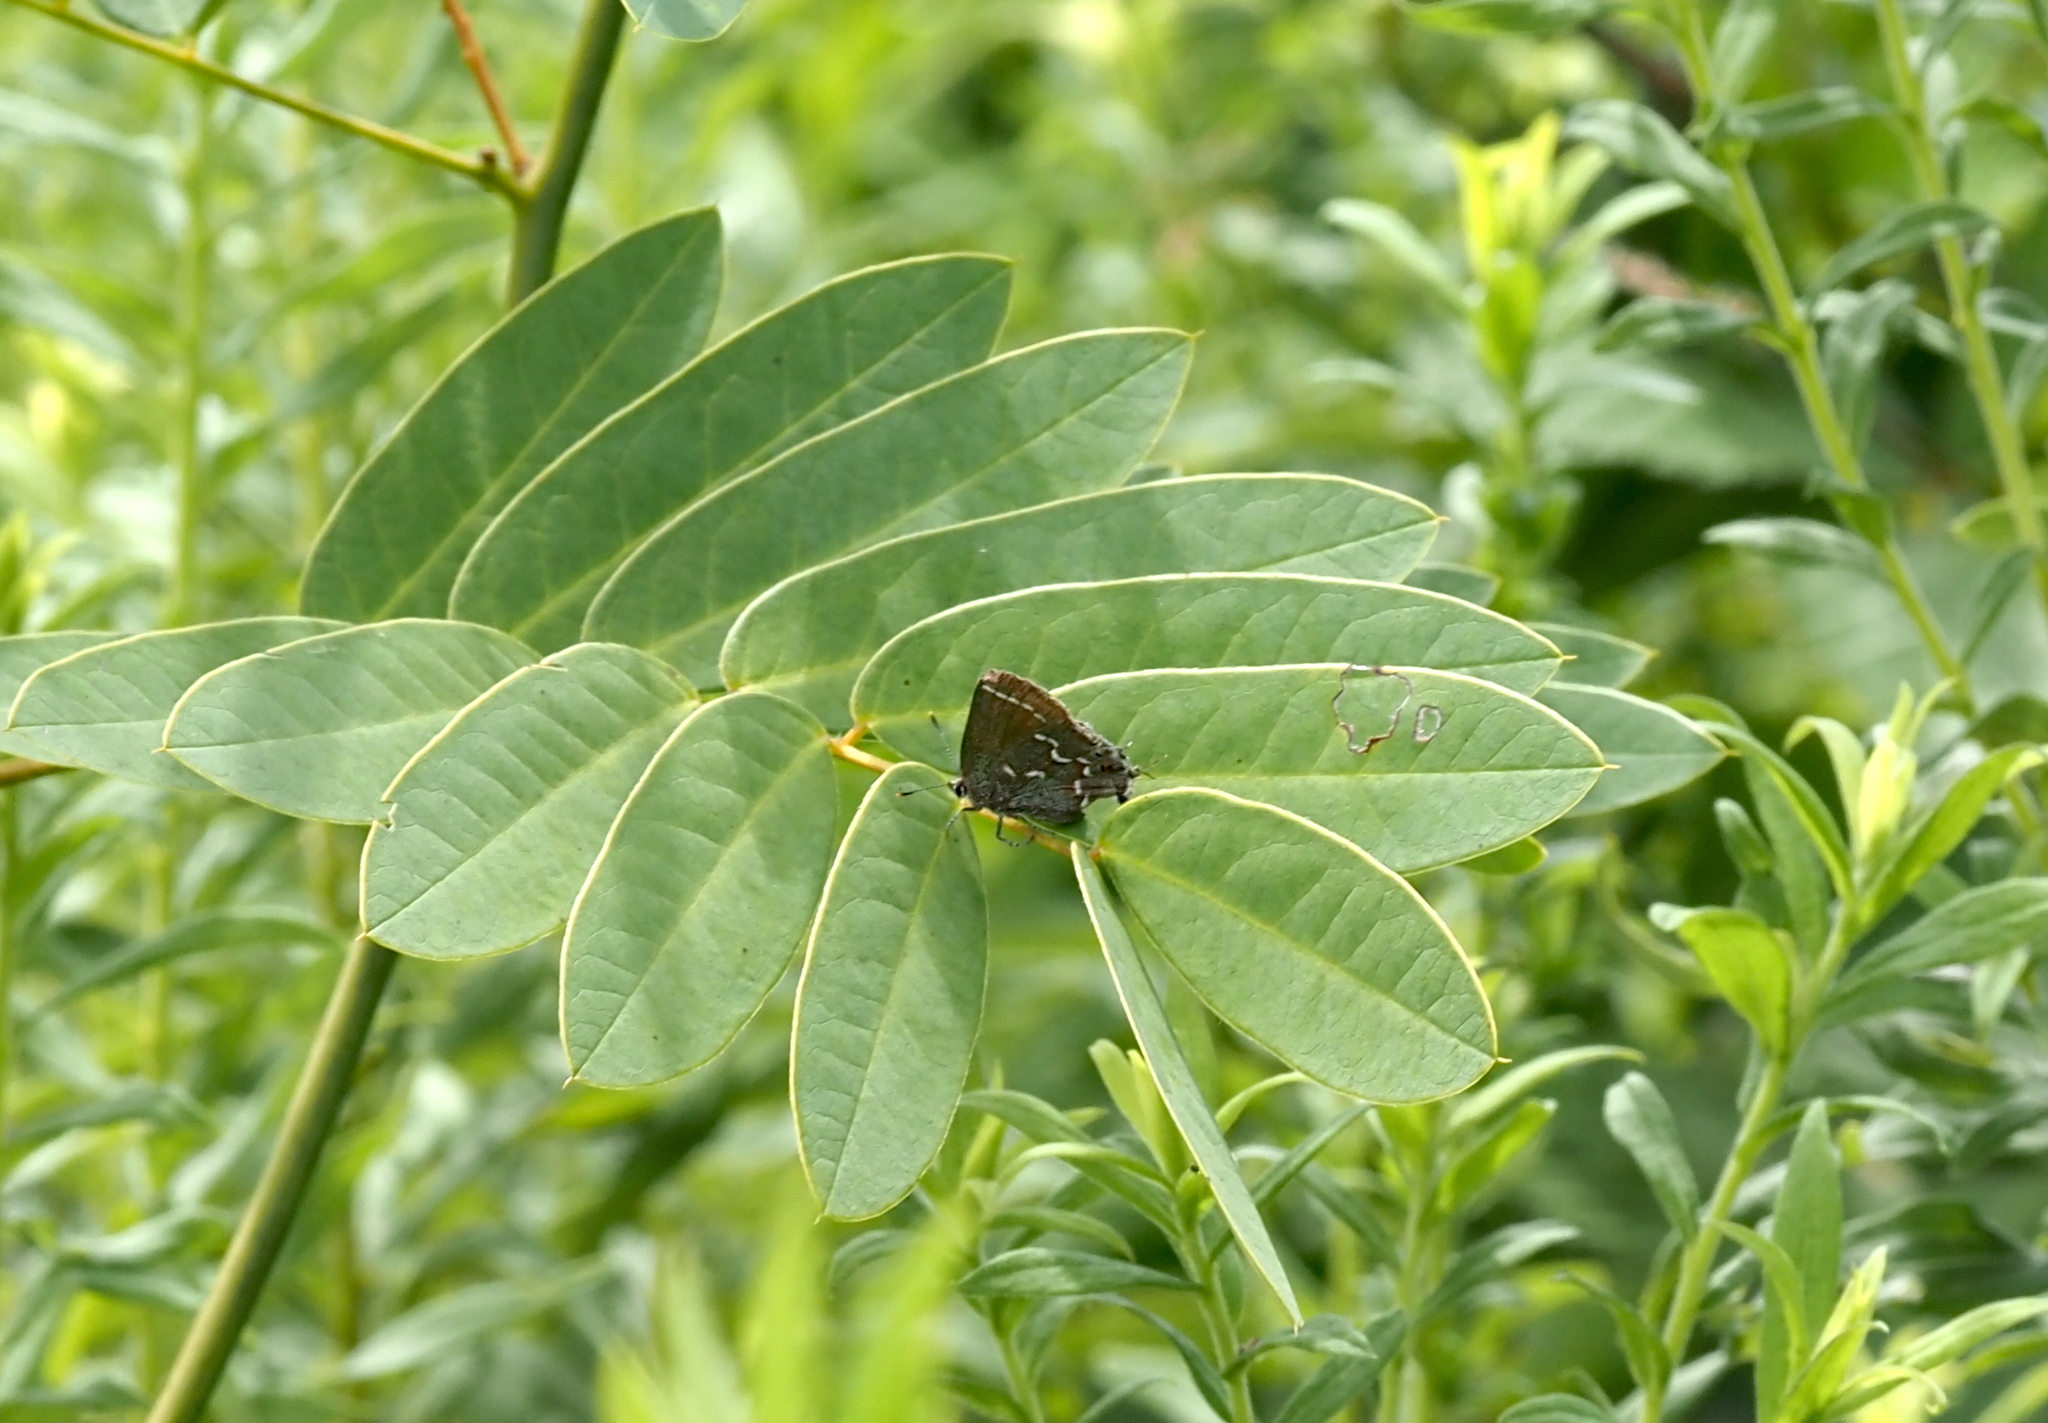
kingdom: Animalia
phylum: Arthropoda
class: Insecta
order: Lepidoptera
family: Lycaenidae
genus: Mitoura
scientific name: Mitoura gryneus
